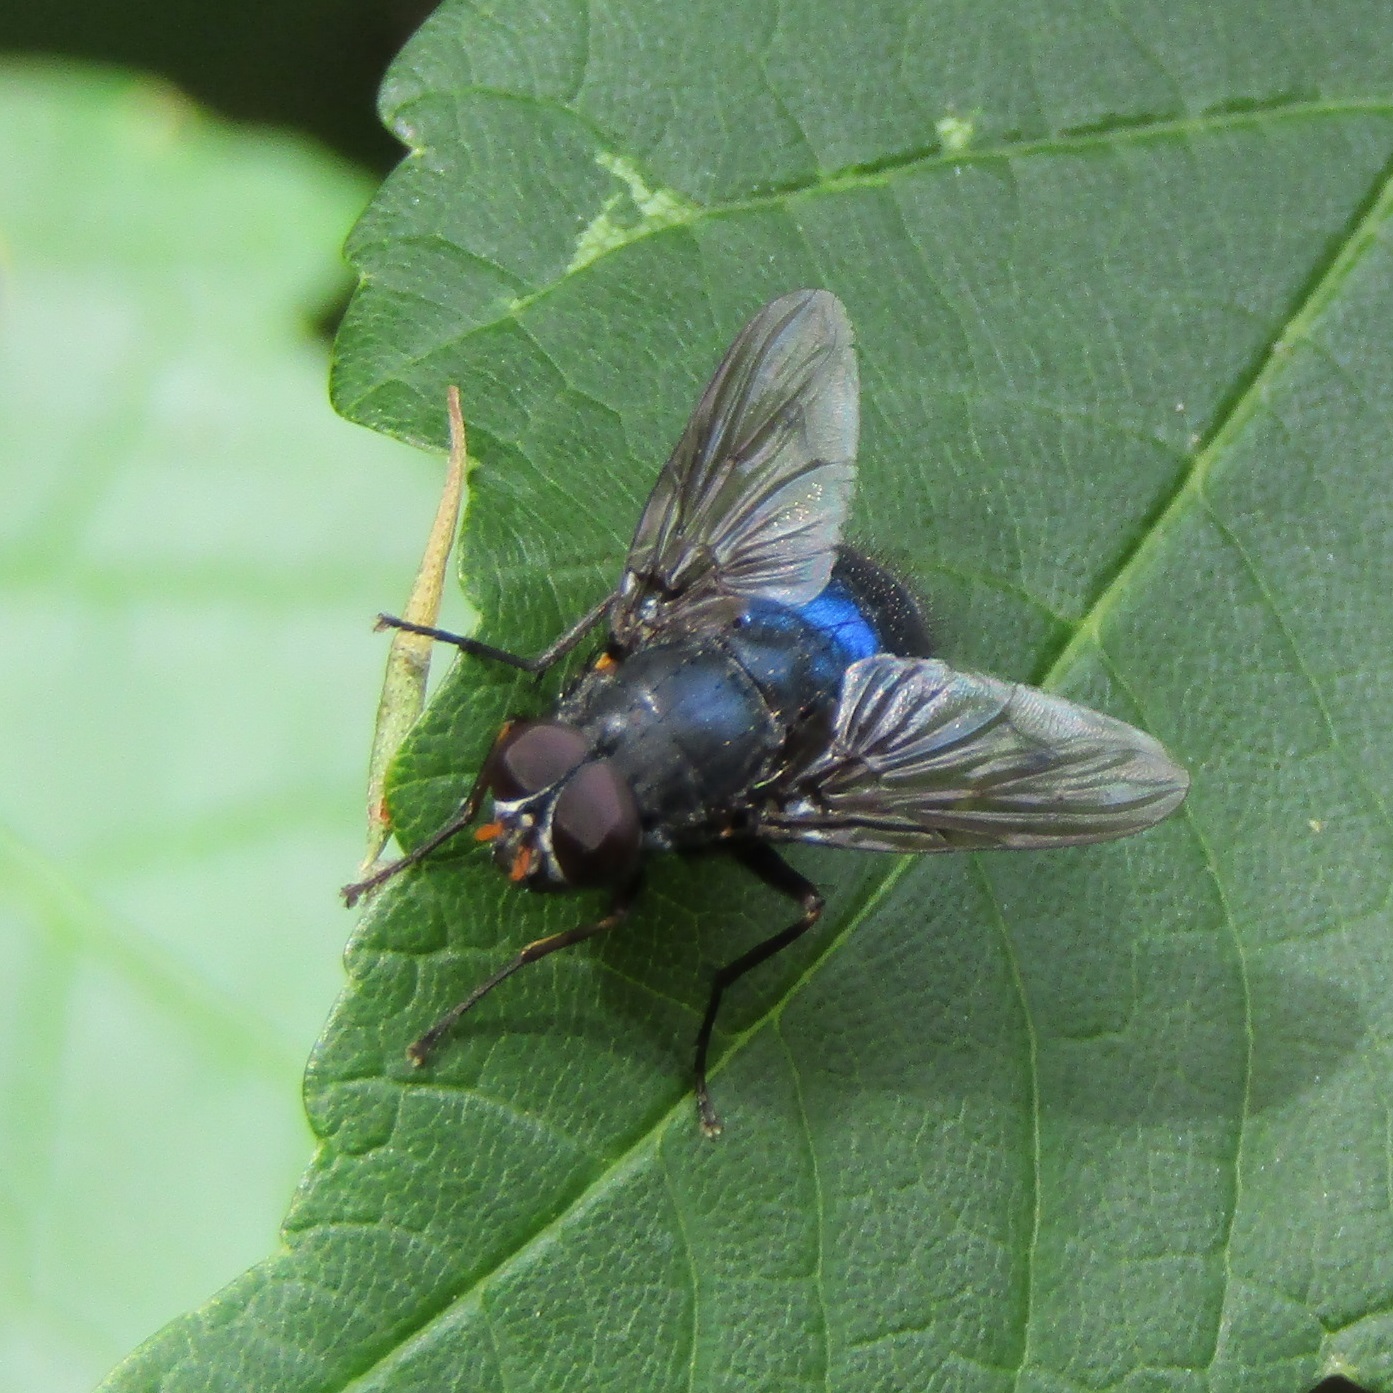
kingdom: Animalia
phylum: Arthropoda
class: Insecta
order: Diptera
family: Muscidae
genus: Calliphoroides
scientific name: Calliphoroides antennatis
